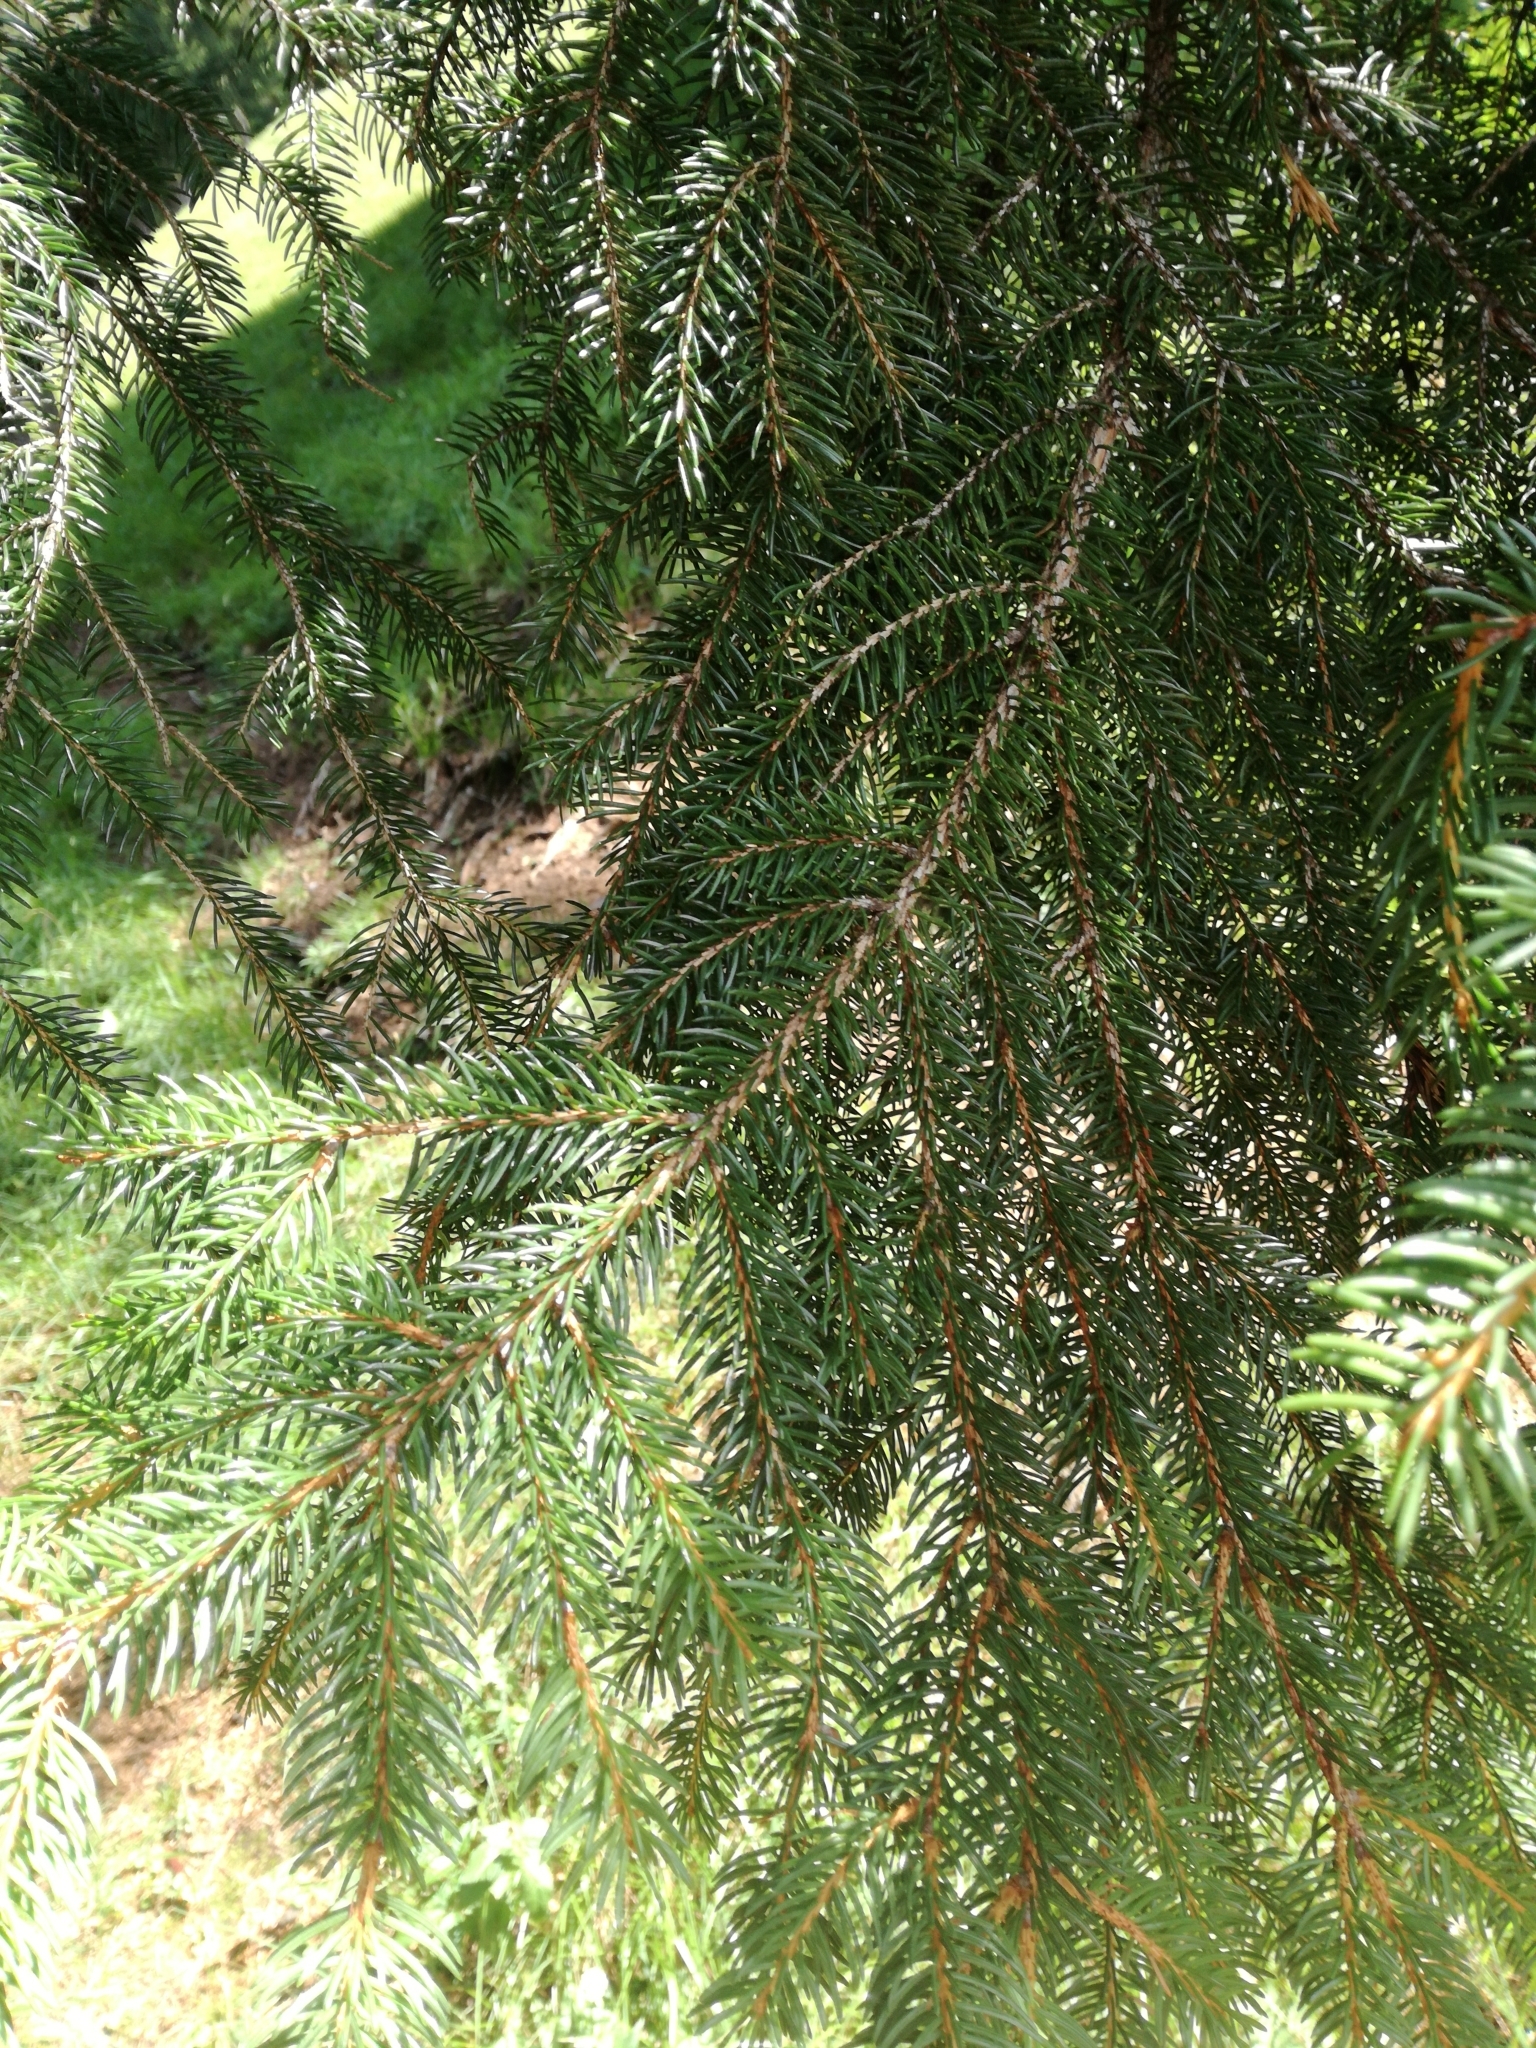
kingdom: Plantae
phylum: Tracheophyta
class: Pinopsida
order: Pinales
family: Pinaceae
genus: Picea
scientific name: Picea abies
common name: Norway spruce
